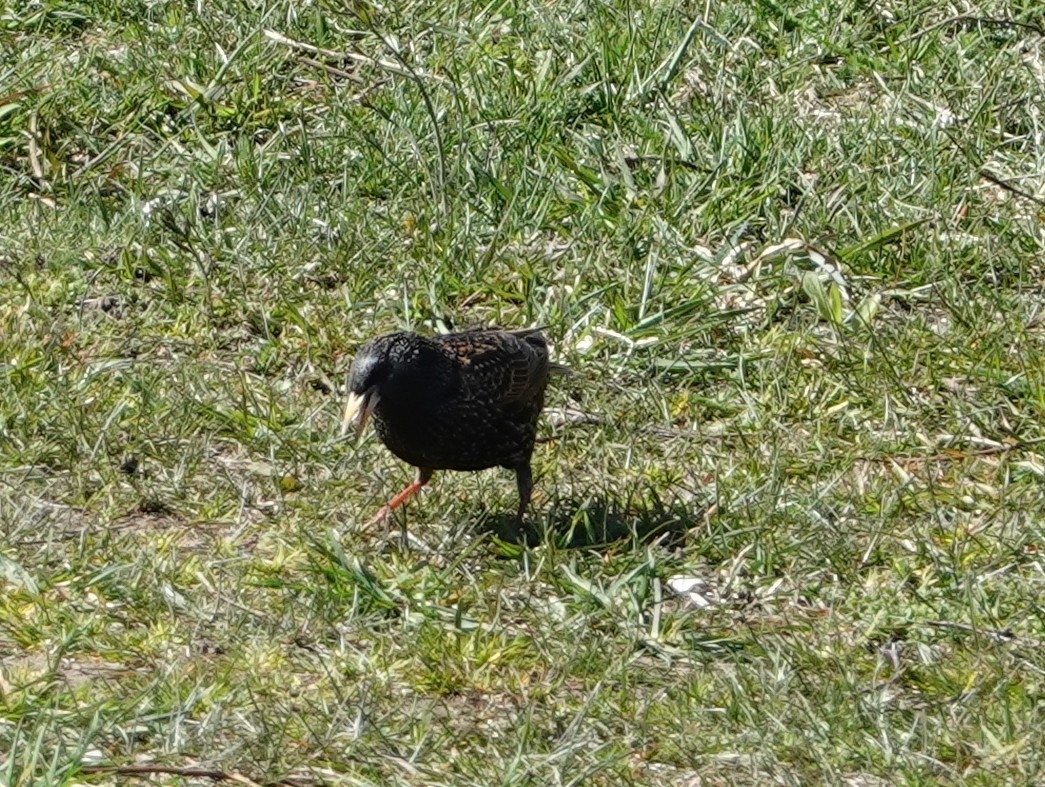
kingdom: Animalia
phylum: Chordata
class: Aves
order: Passeriformes
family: Sturnidae
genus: Sturnus
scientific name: Sturnus vulgaris
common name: Common starling
